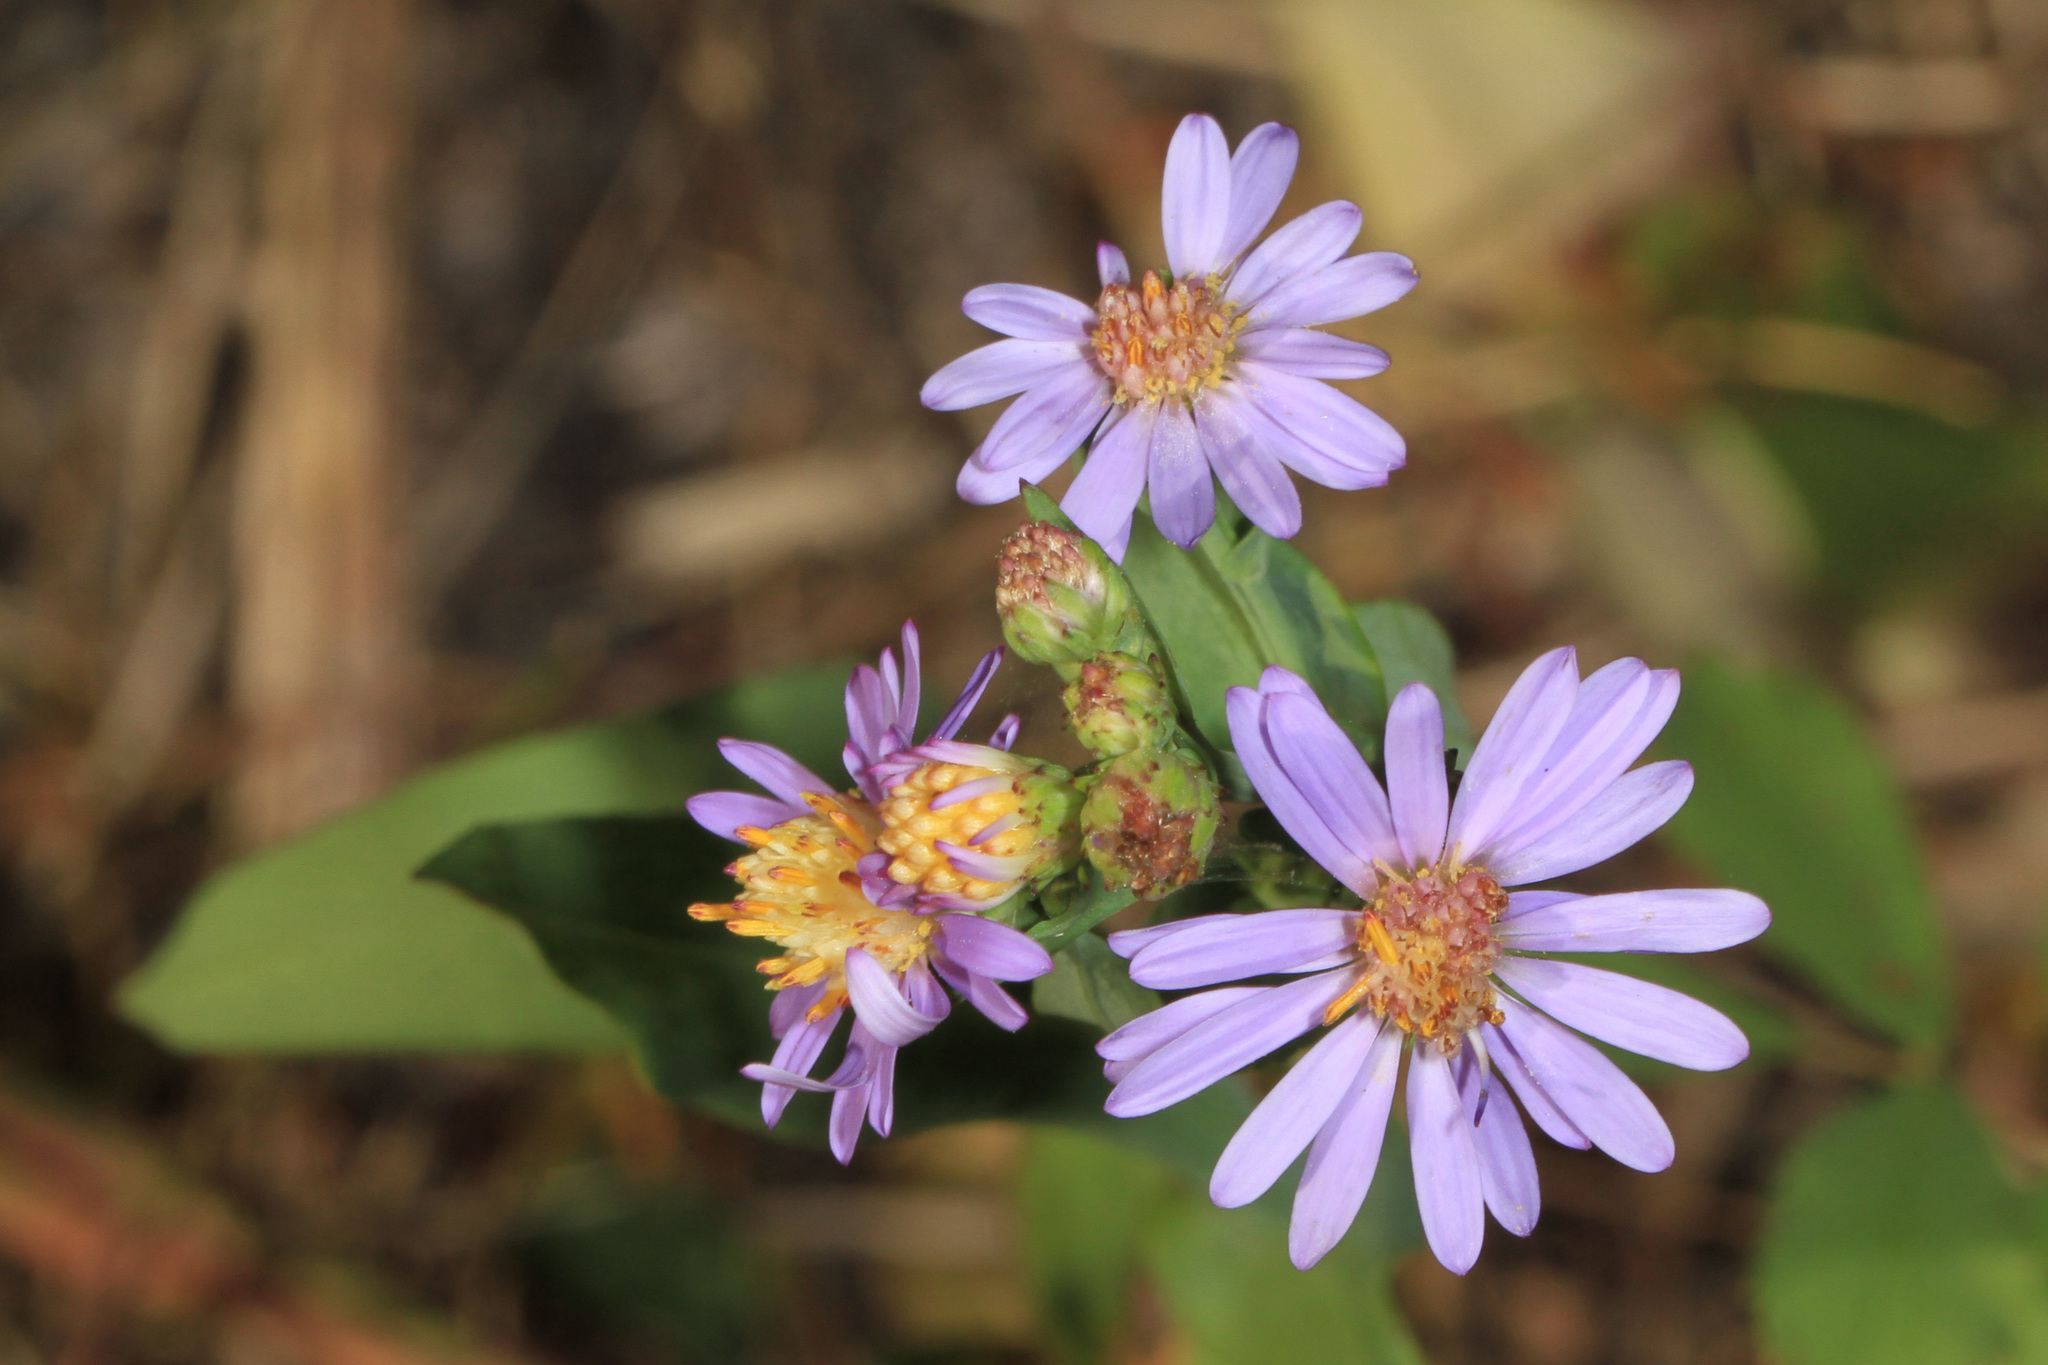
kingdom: Plantae
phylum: Tracheophyta
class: Magnoliopsida
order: Asterales
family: Asteraceae
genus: Symphyotrichum
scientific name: Symphyotrichum laeve
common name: Glaucous aster
